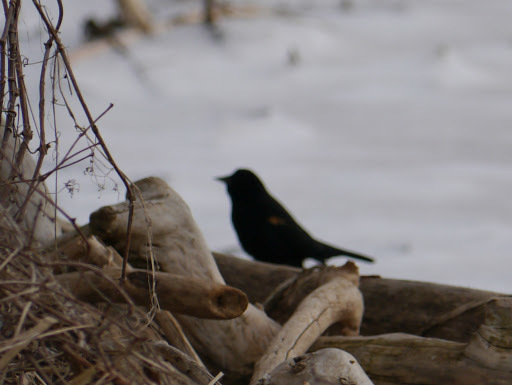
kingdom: Animalia
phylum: Chordata
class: Aves
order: Passeriformes
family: Icteridae
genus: Agelaius
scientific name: Agelaius phoeniceus
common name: Red-winged blackbird
